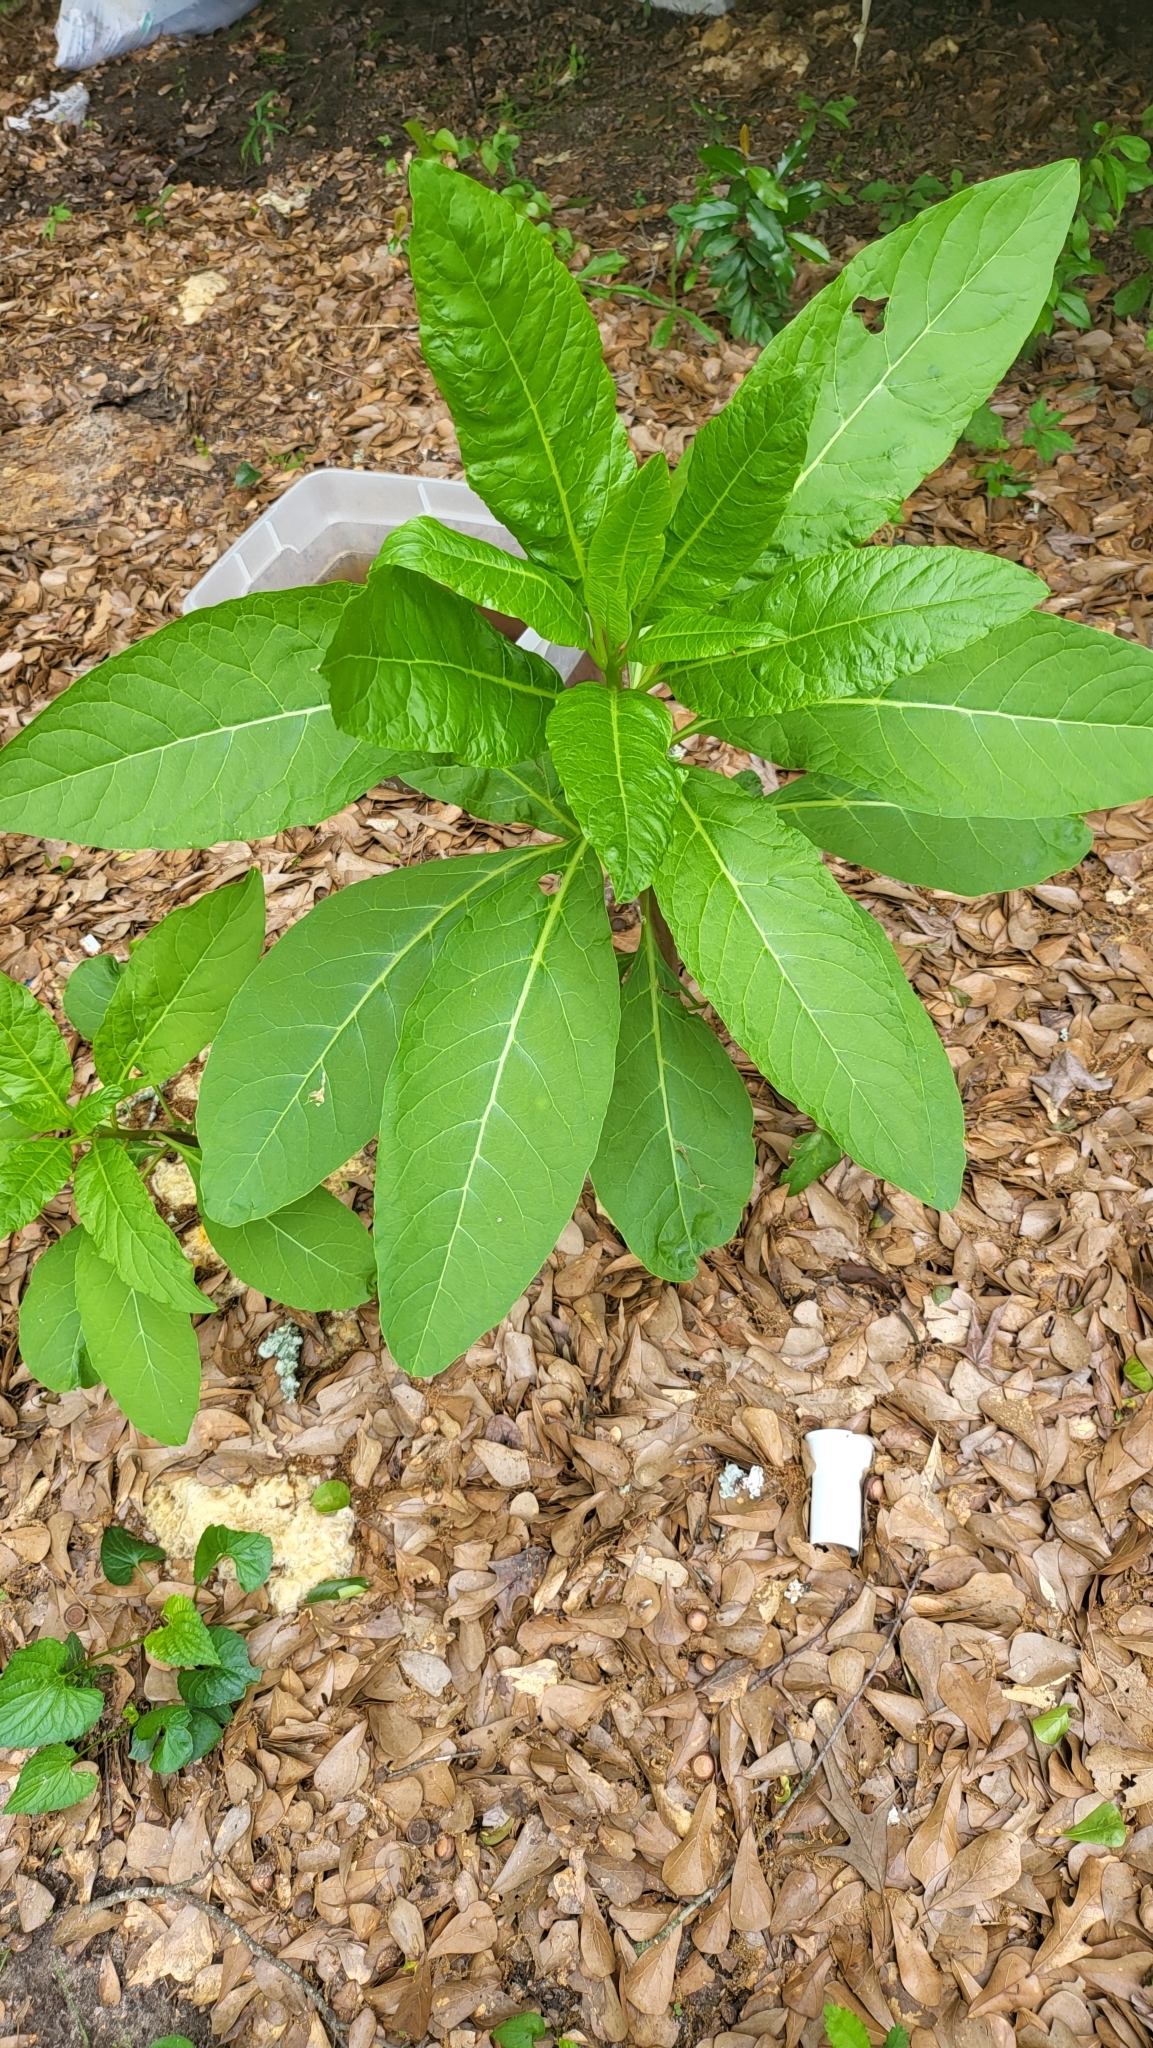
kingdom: Plantae
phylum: Tracheophyta
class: Magnoliopsida
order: Caryophyllales
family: Phytolaccaceae
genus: Phytolacca
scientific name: Phytolacca americana
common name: American pokeweed
